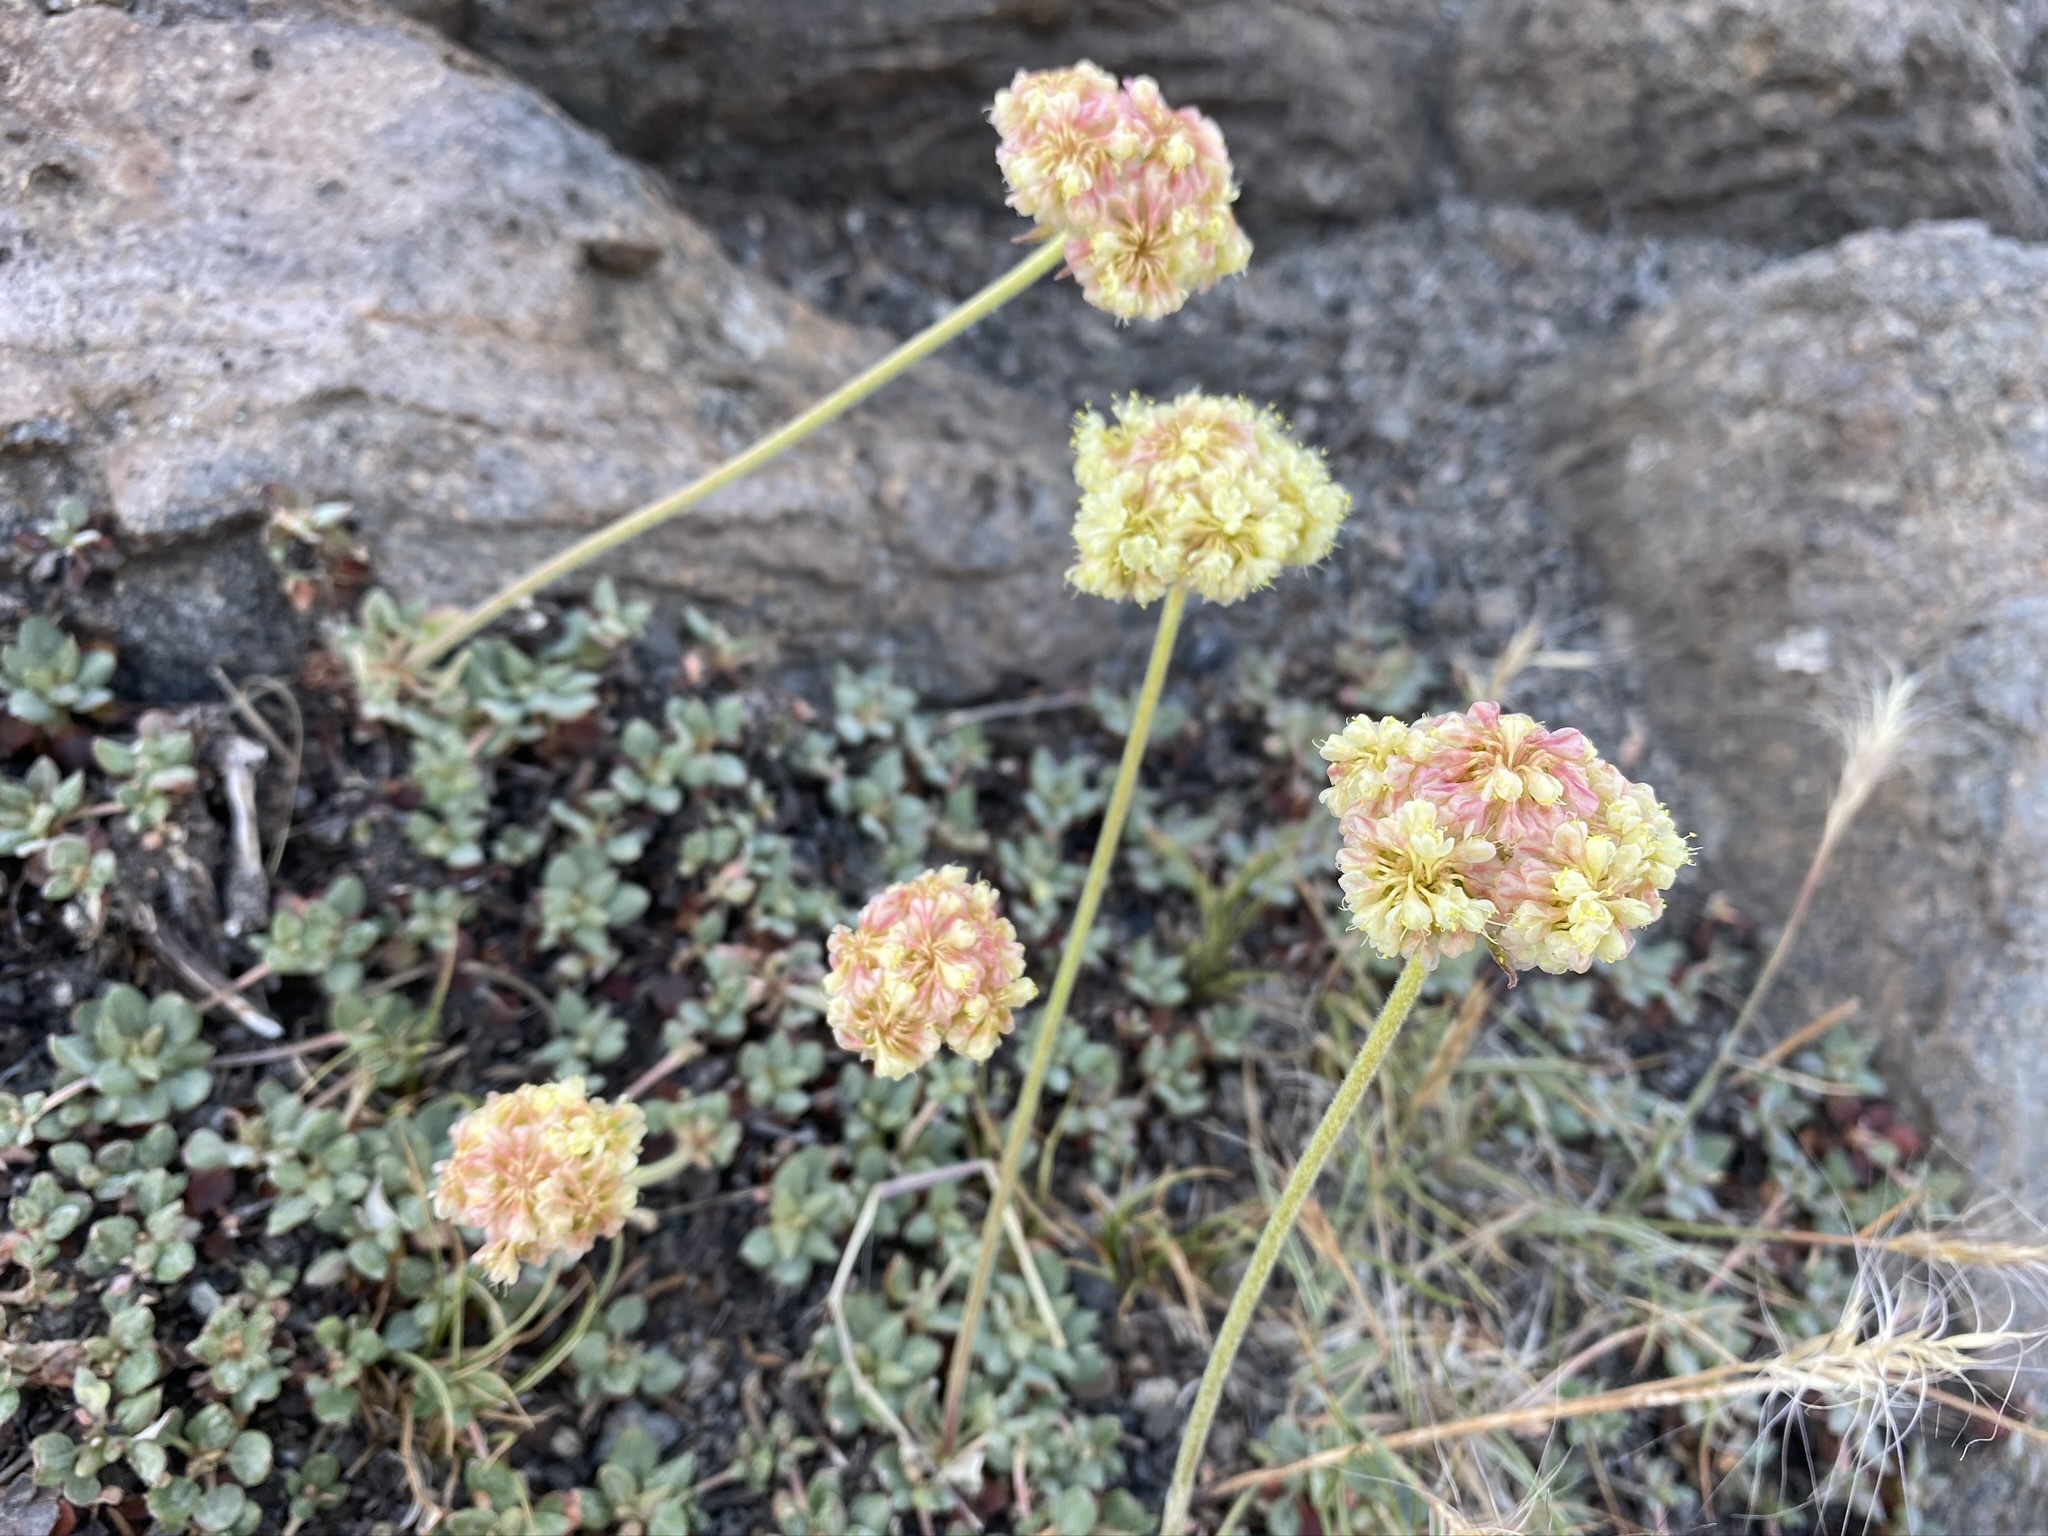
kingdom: Plantae
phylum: Tracheophyta
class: Magnoliopsida
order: Caryophyllales
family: Polygonaceae
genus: Eriogonum
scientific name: Eriogonum ursinum
